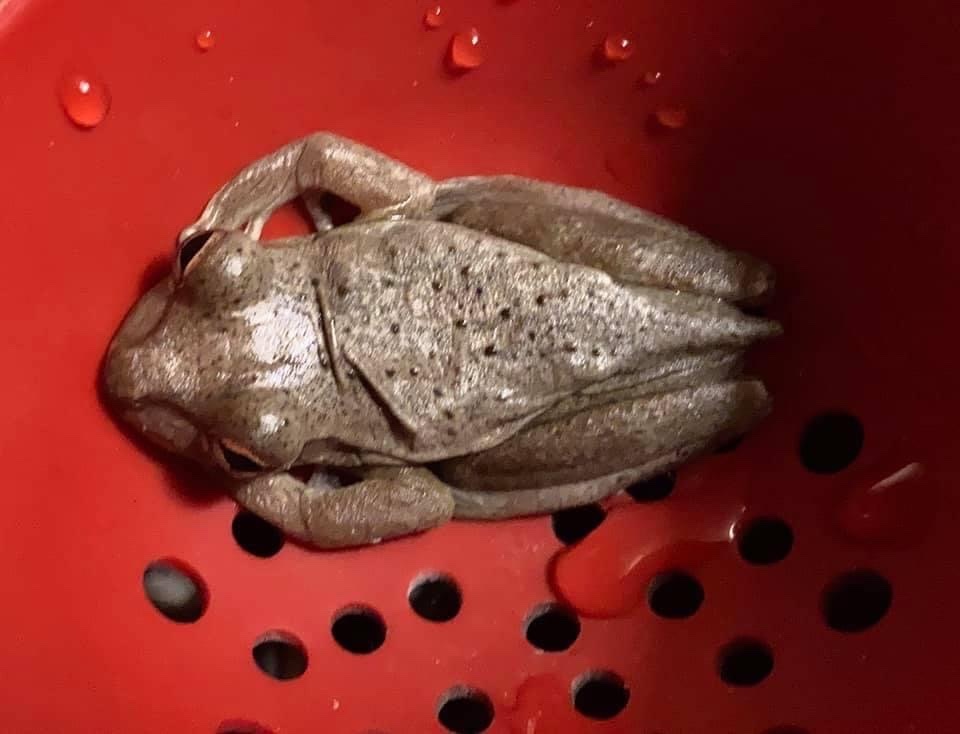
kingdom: Animalia
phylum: Chordata
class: Amphibia
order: Anura
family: Hylidae
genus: Osteopilus
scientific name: Osteopilus septentrionalis
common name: Cuban treefrog
